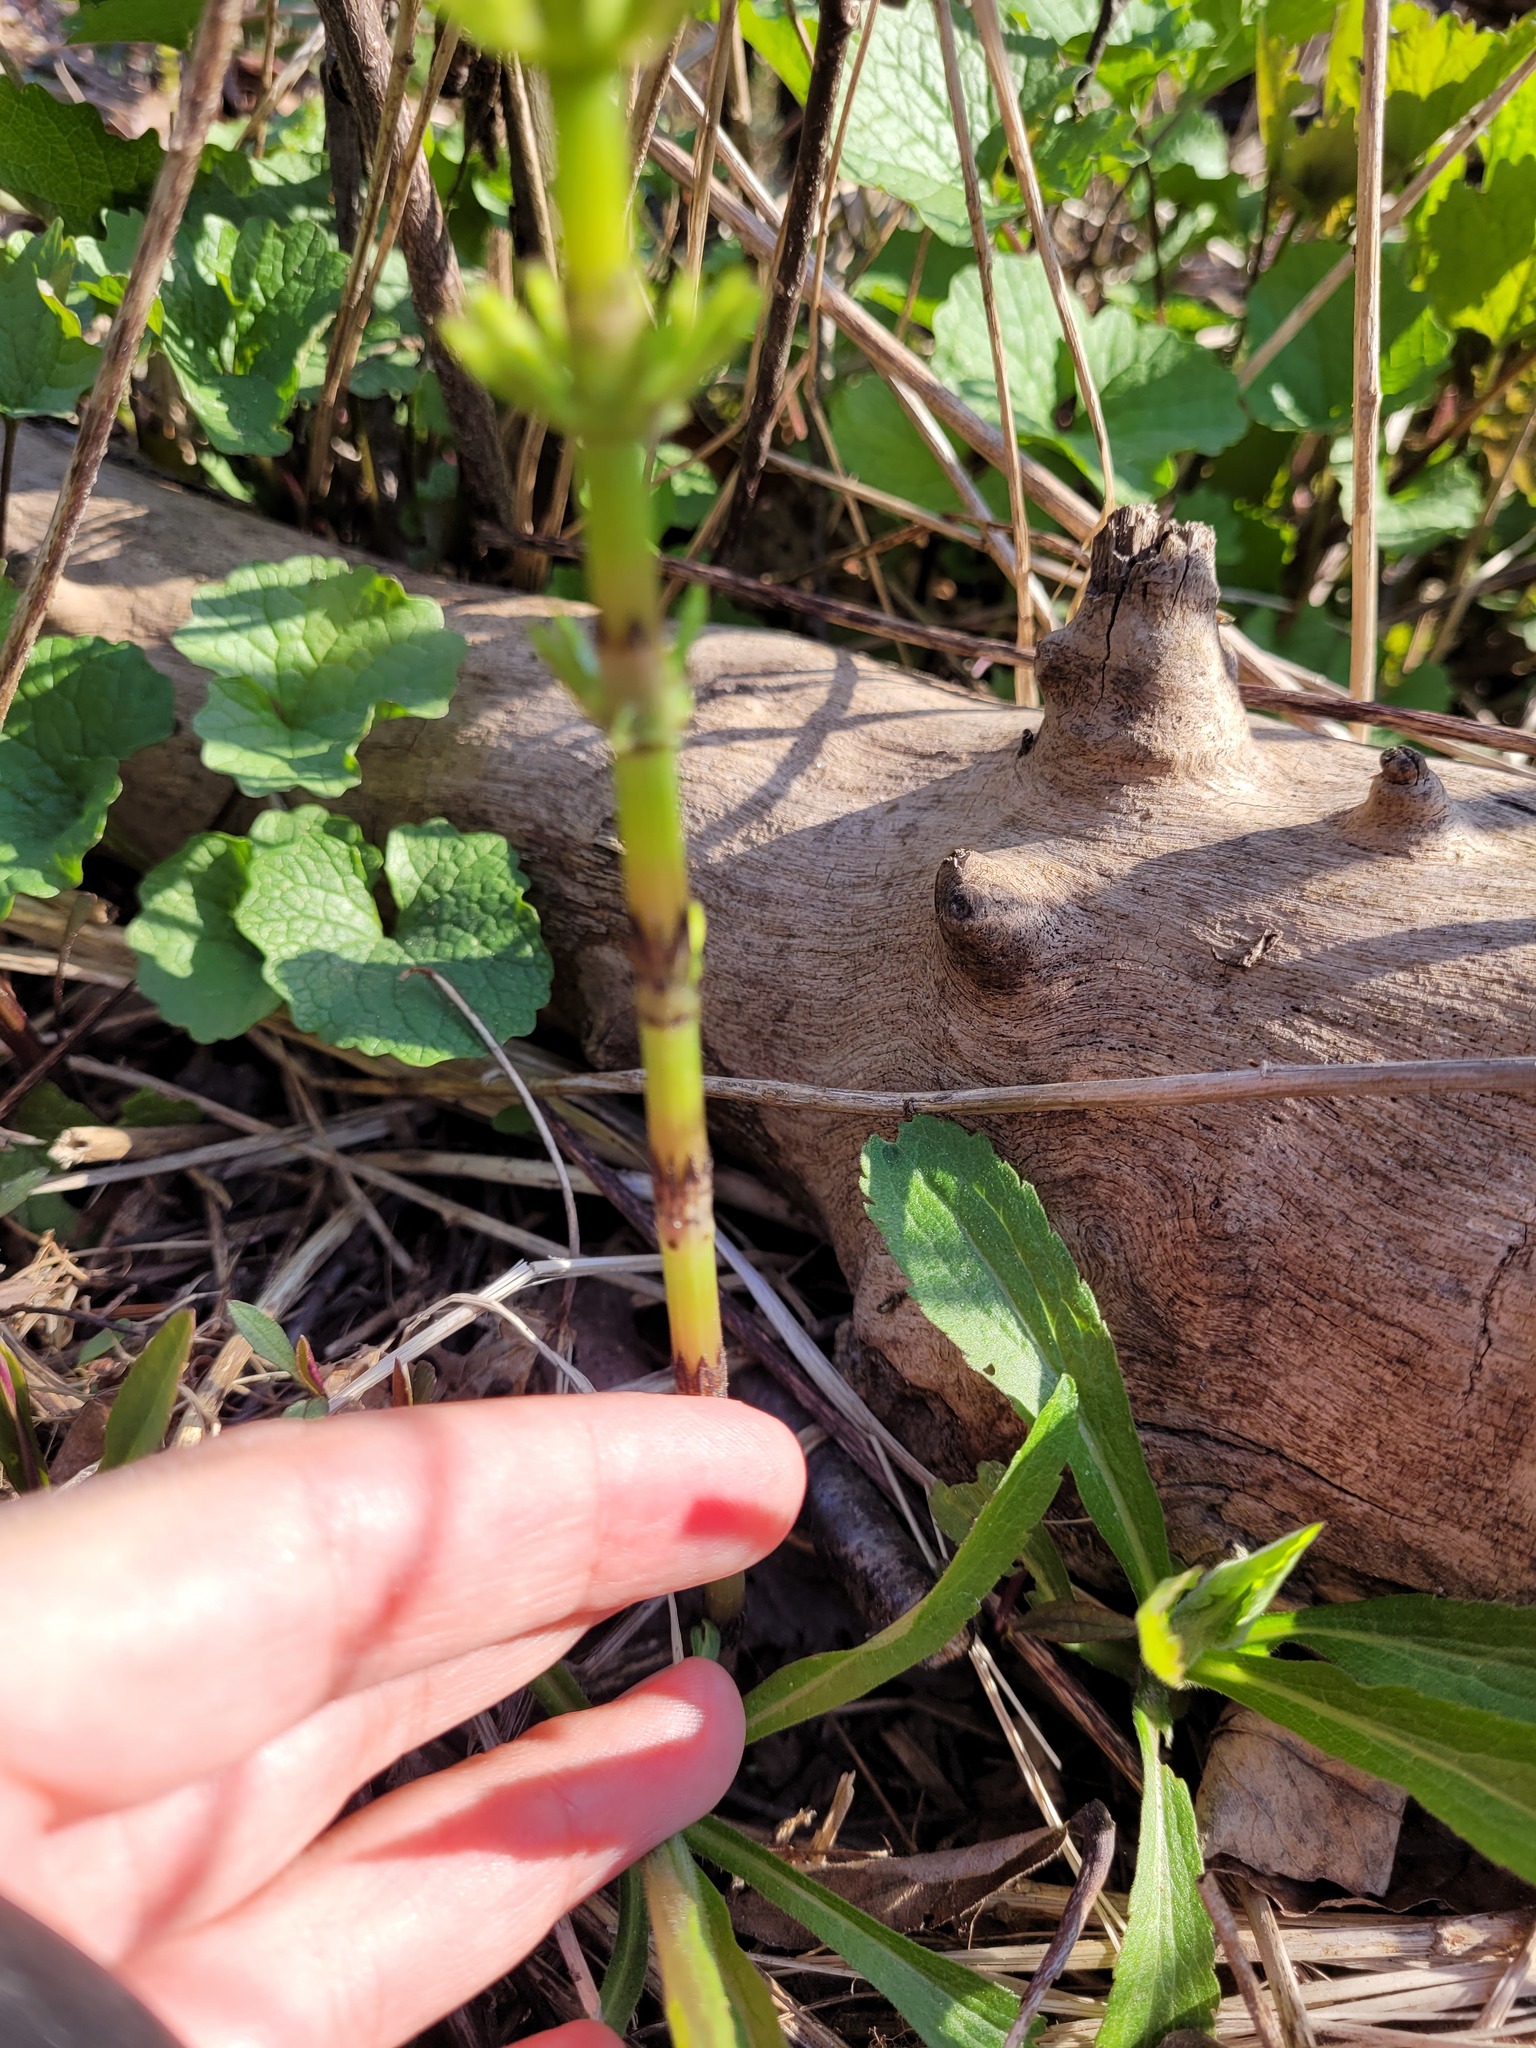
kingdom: Plantae
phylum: Tracheophyta
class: Polypodiopsida
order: Equisetales
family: Equisetaceae
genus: Equisetum
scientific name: Equisetum arvense
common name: Field horsetail
